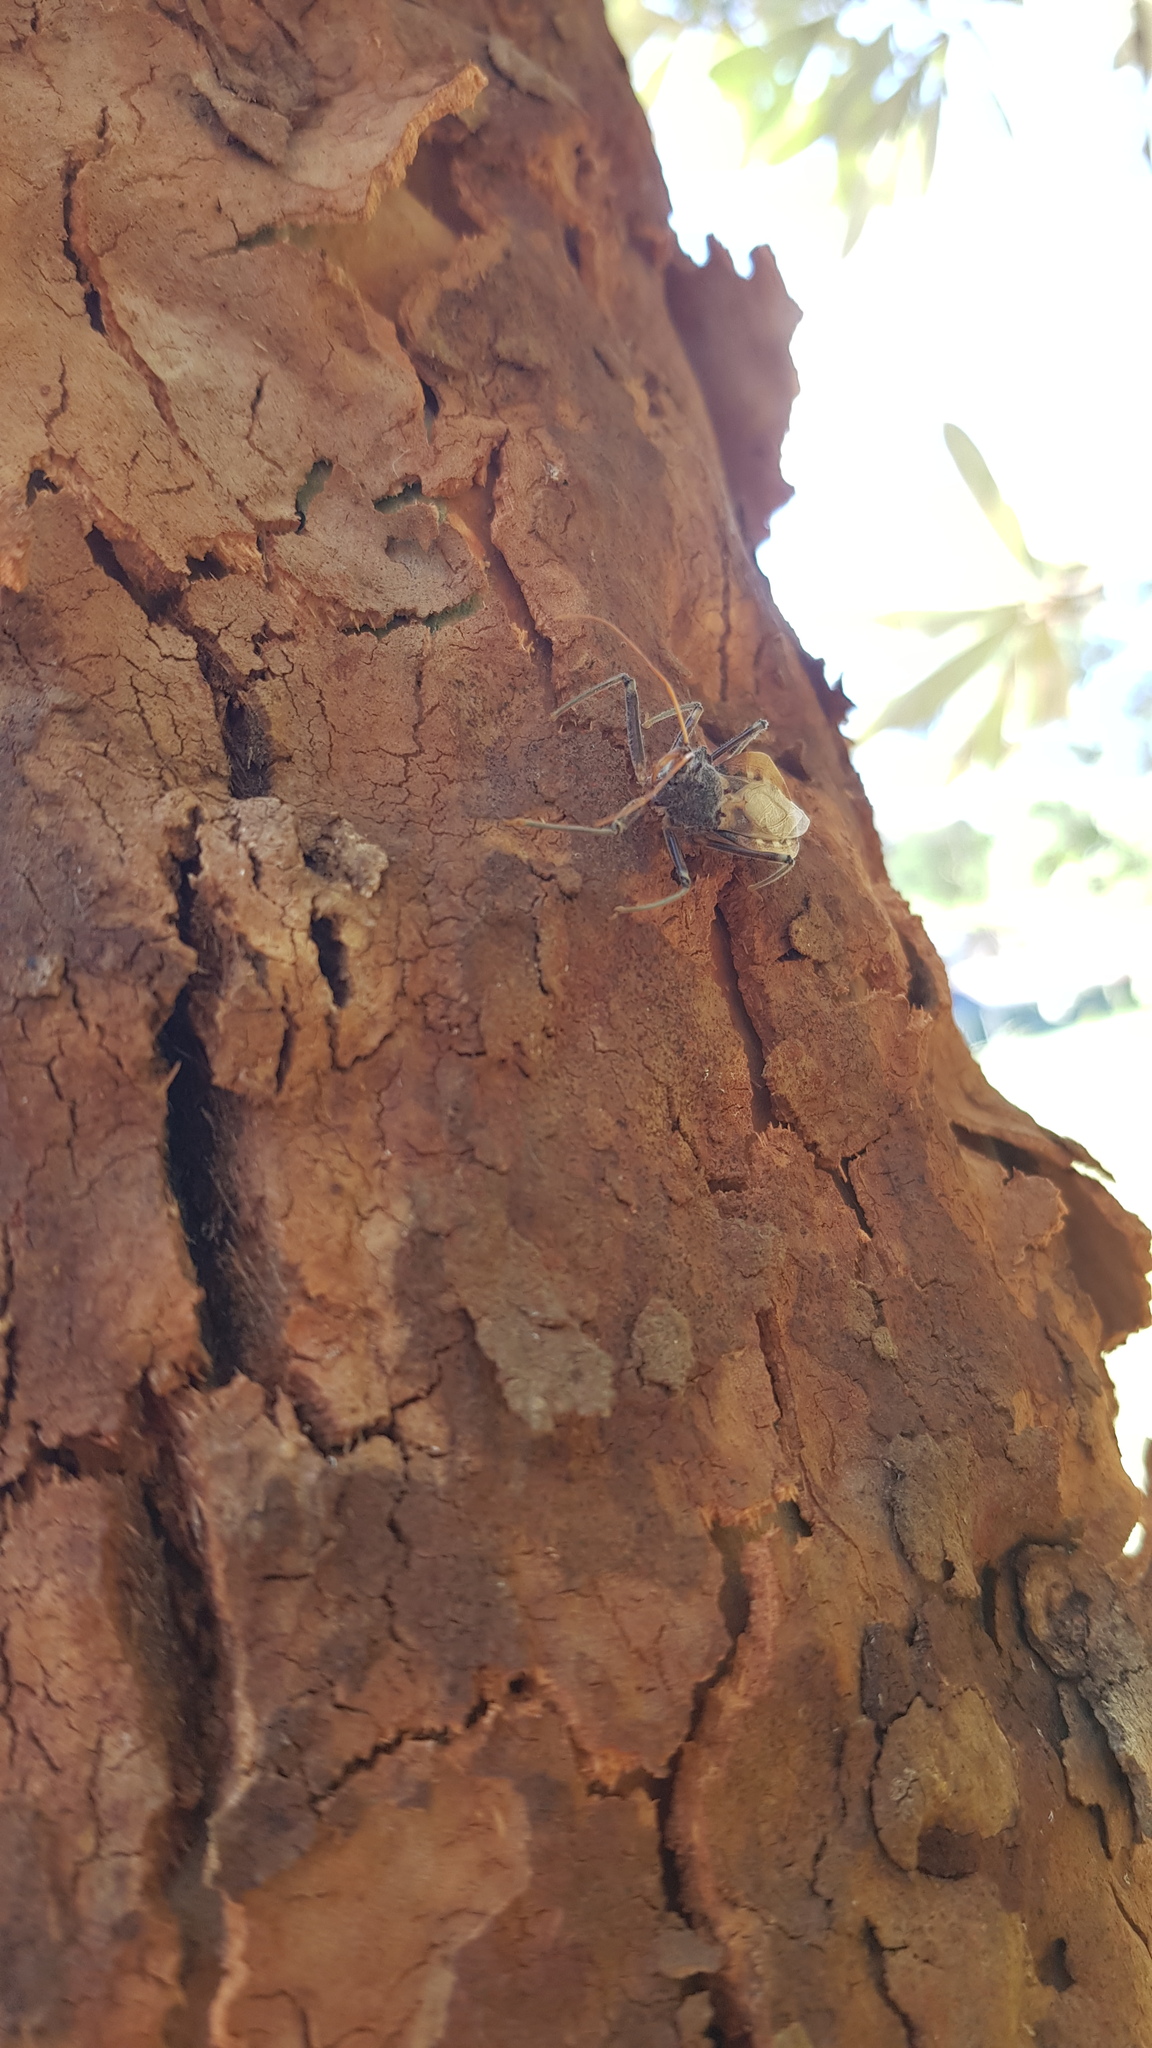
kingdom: Animalia
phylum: Arthropoda
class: Insecta
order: Hemiptera
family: Reduviidae
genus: Pristhesancus
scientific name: Pristhesancus plagipennis
